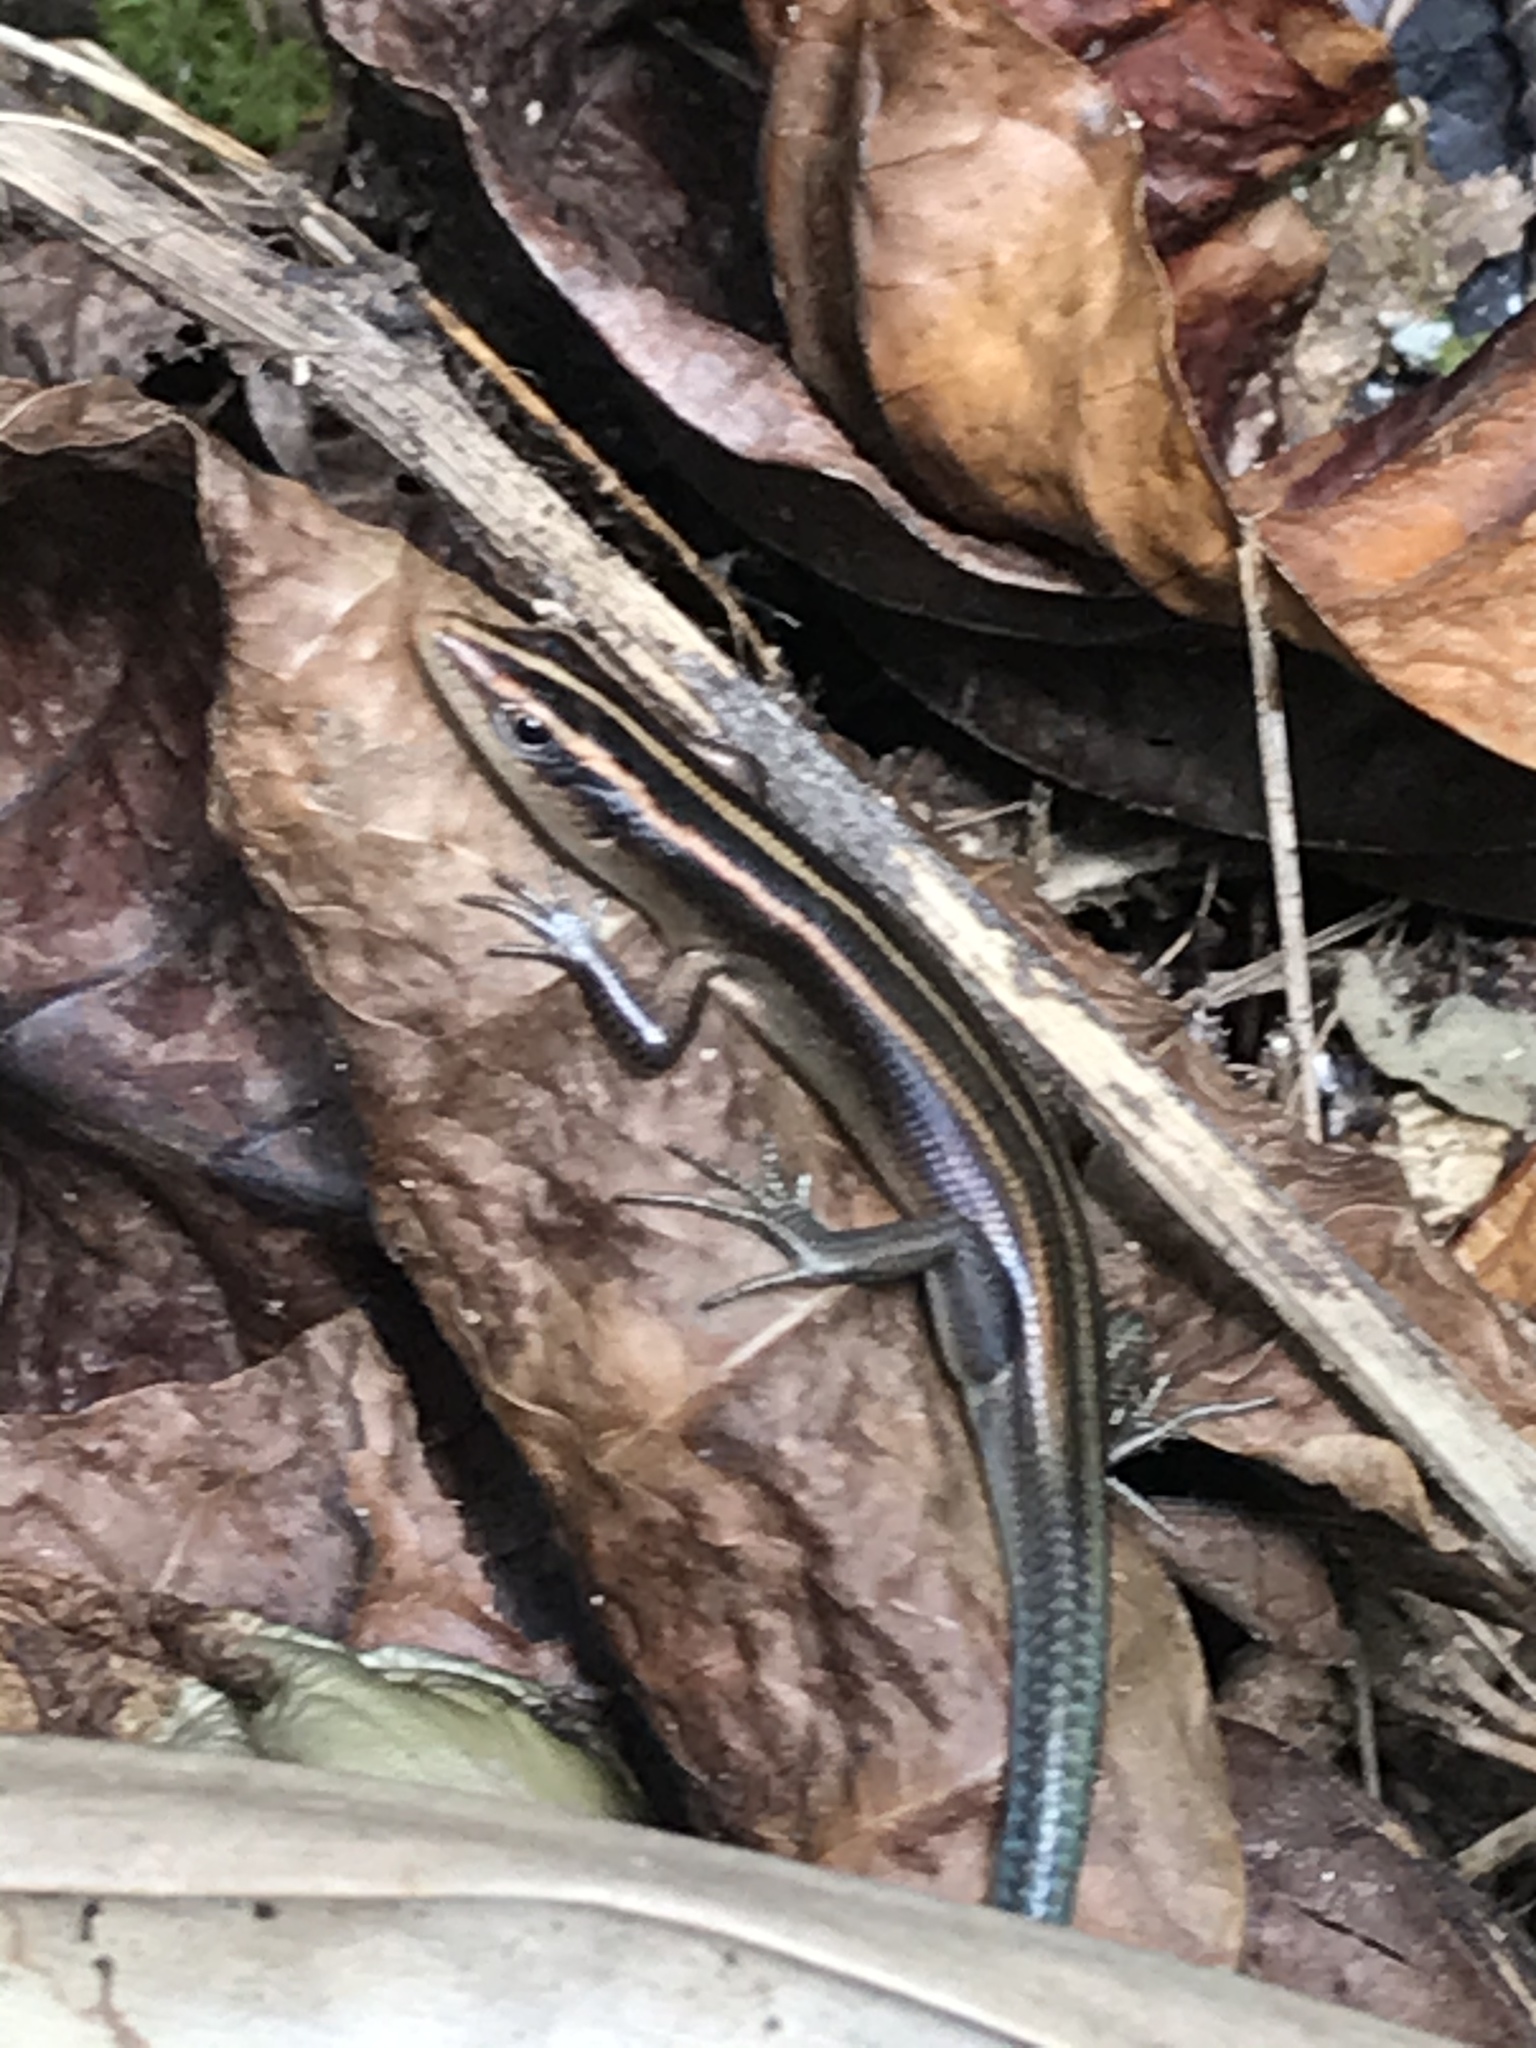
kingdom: Animalia
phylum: Chordata
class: Squamata
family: Scincidae
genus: Emoia
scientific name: Emoia impar
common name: Azure-tailed skink
